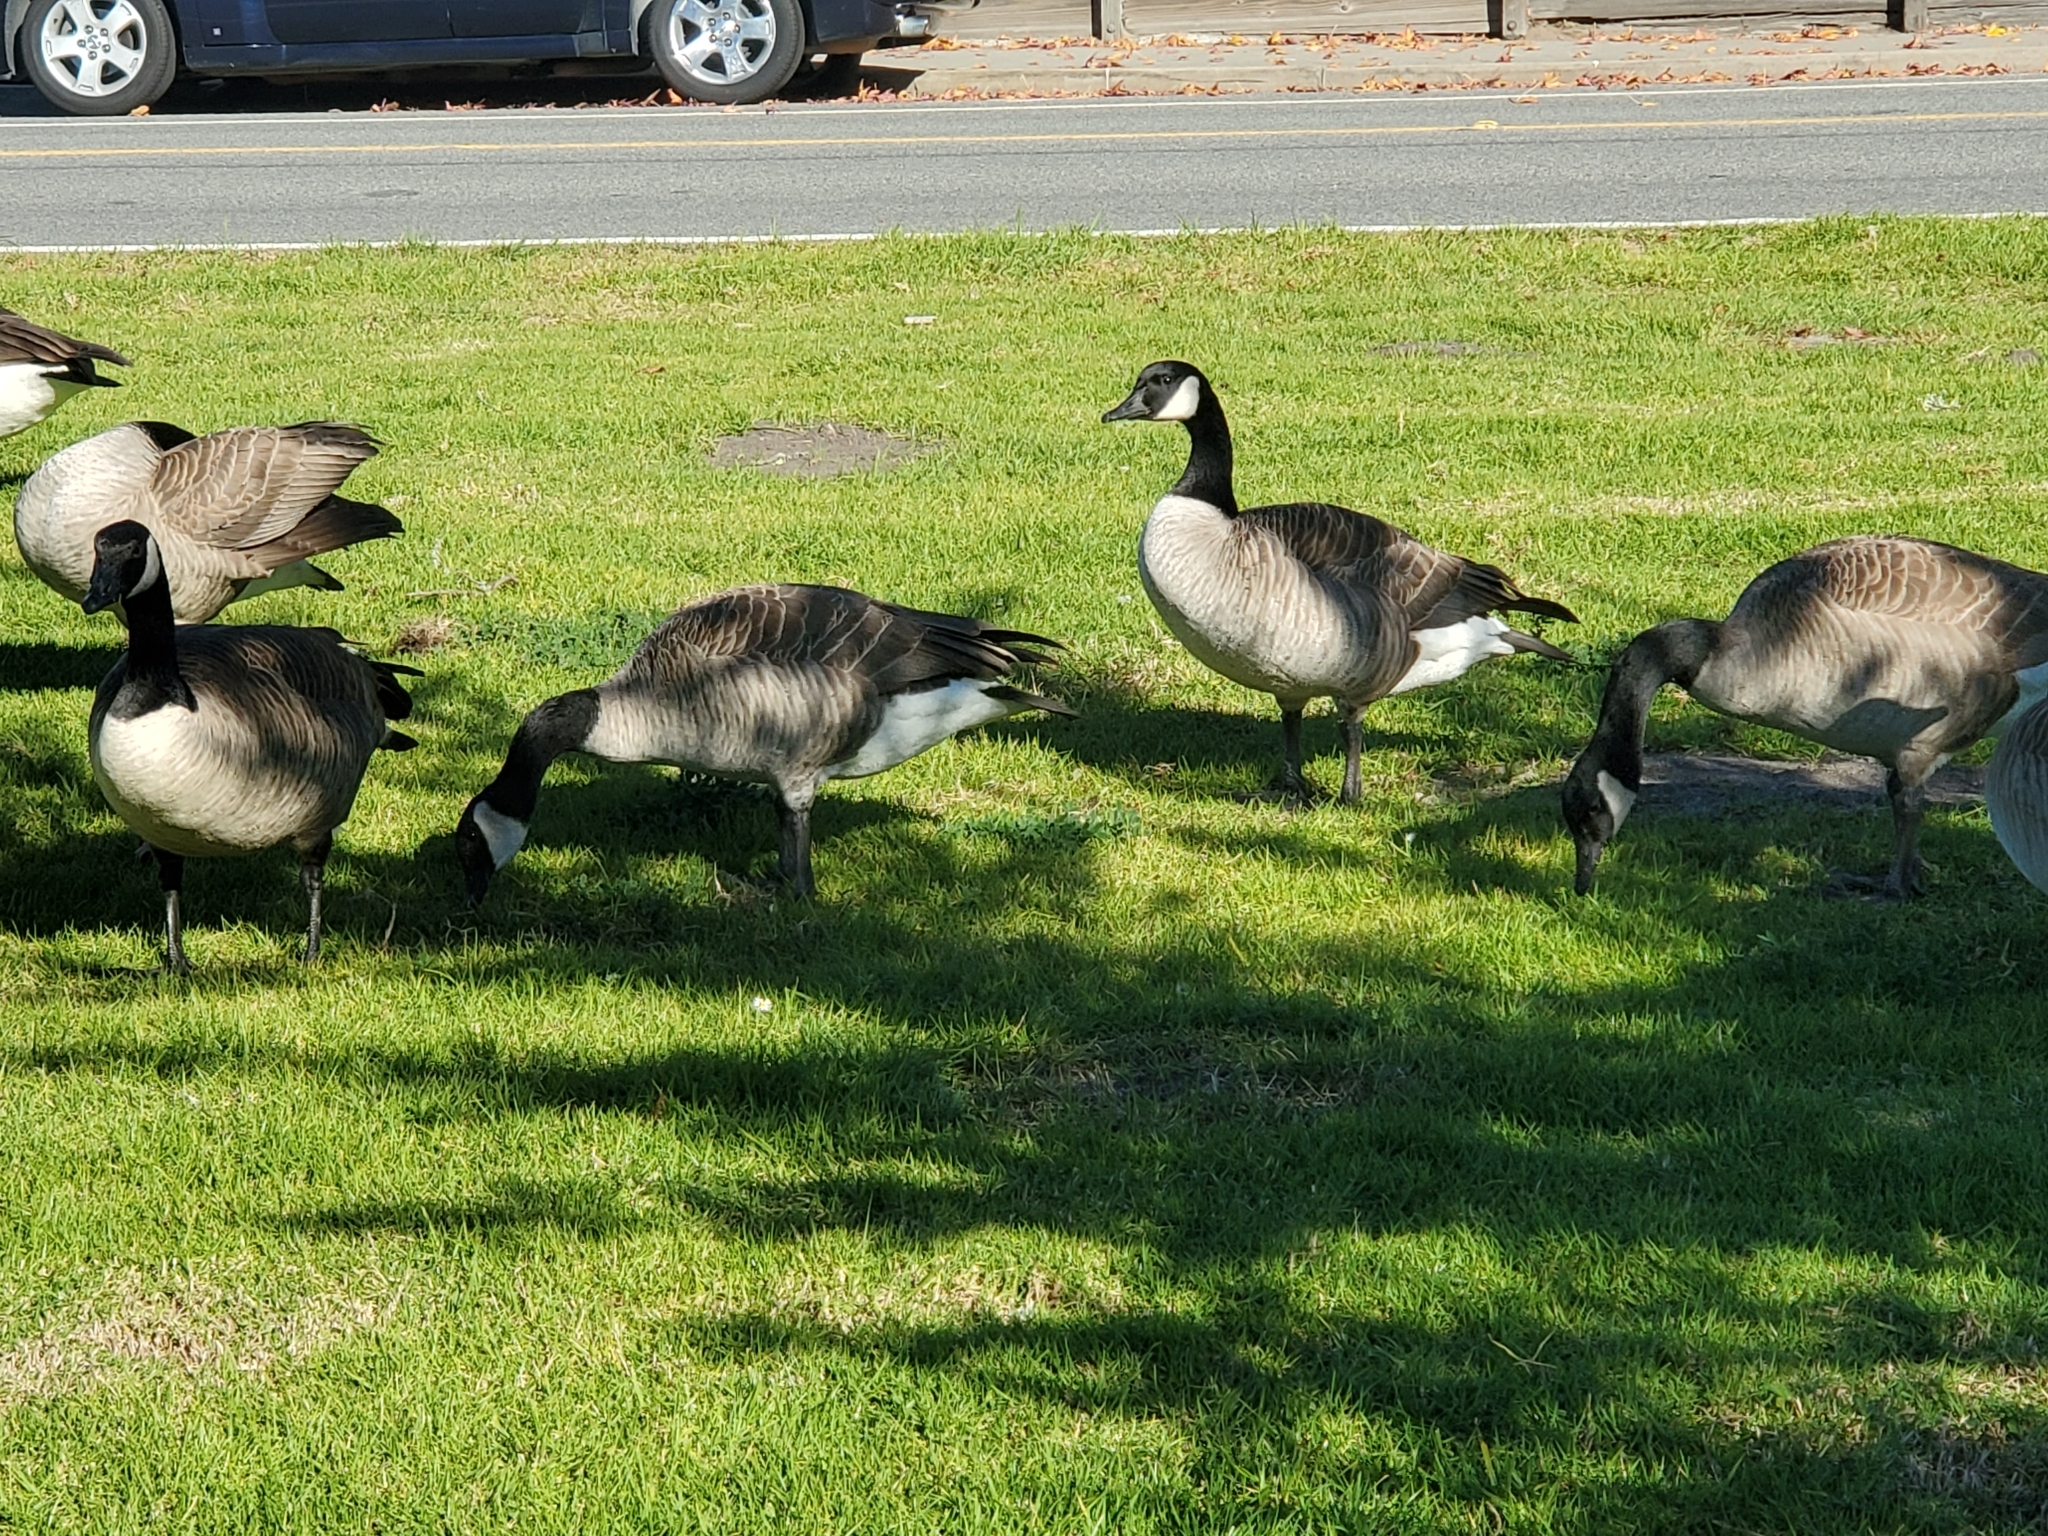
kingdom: Animalia
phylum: Chordata
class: Aves
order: Anseriformes
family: Anatidae
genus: Branta
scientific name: Branta canadensis
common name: Canada goose
